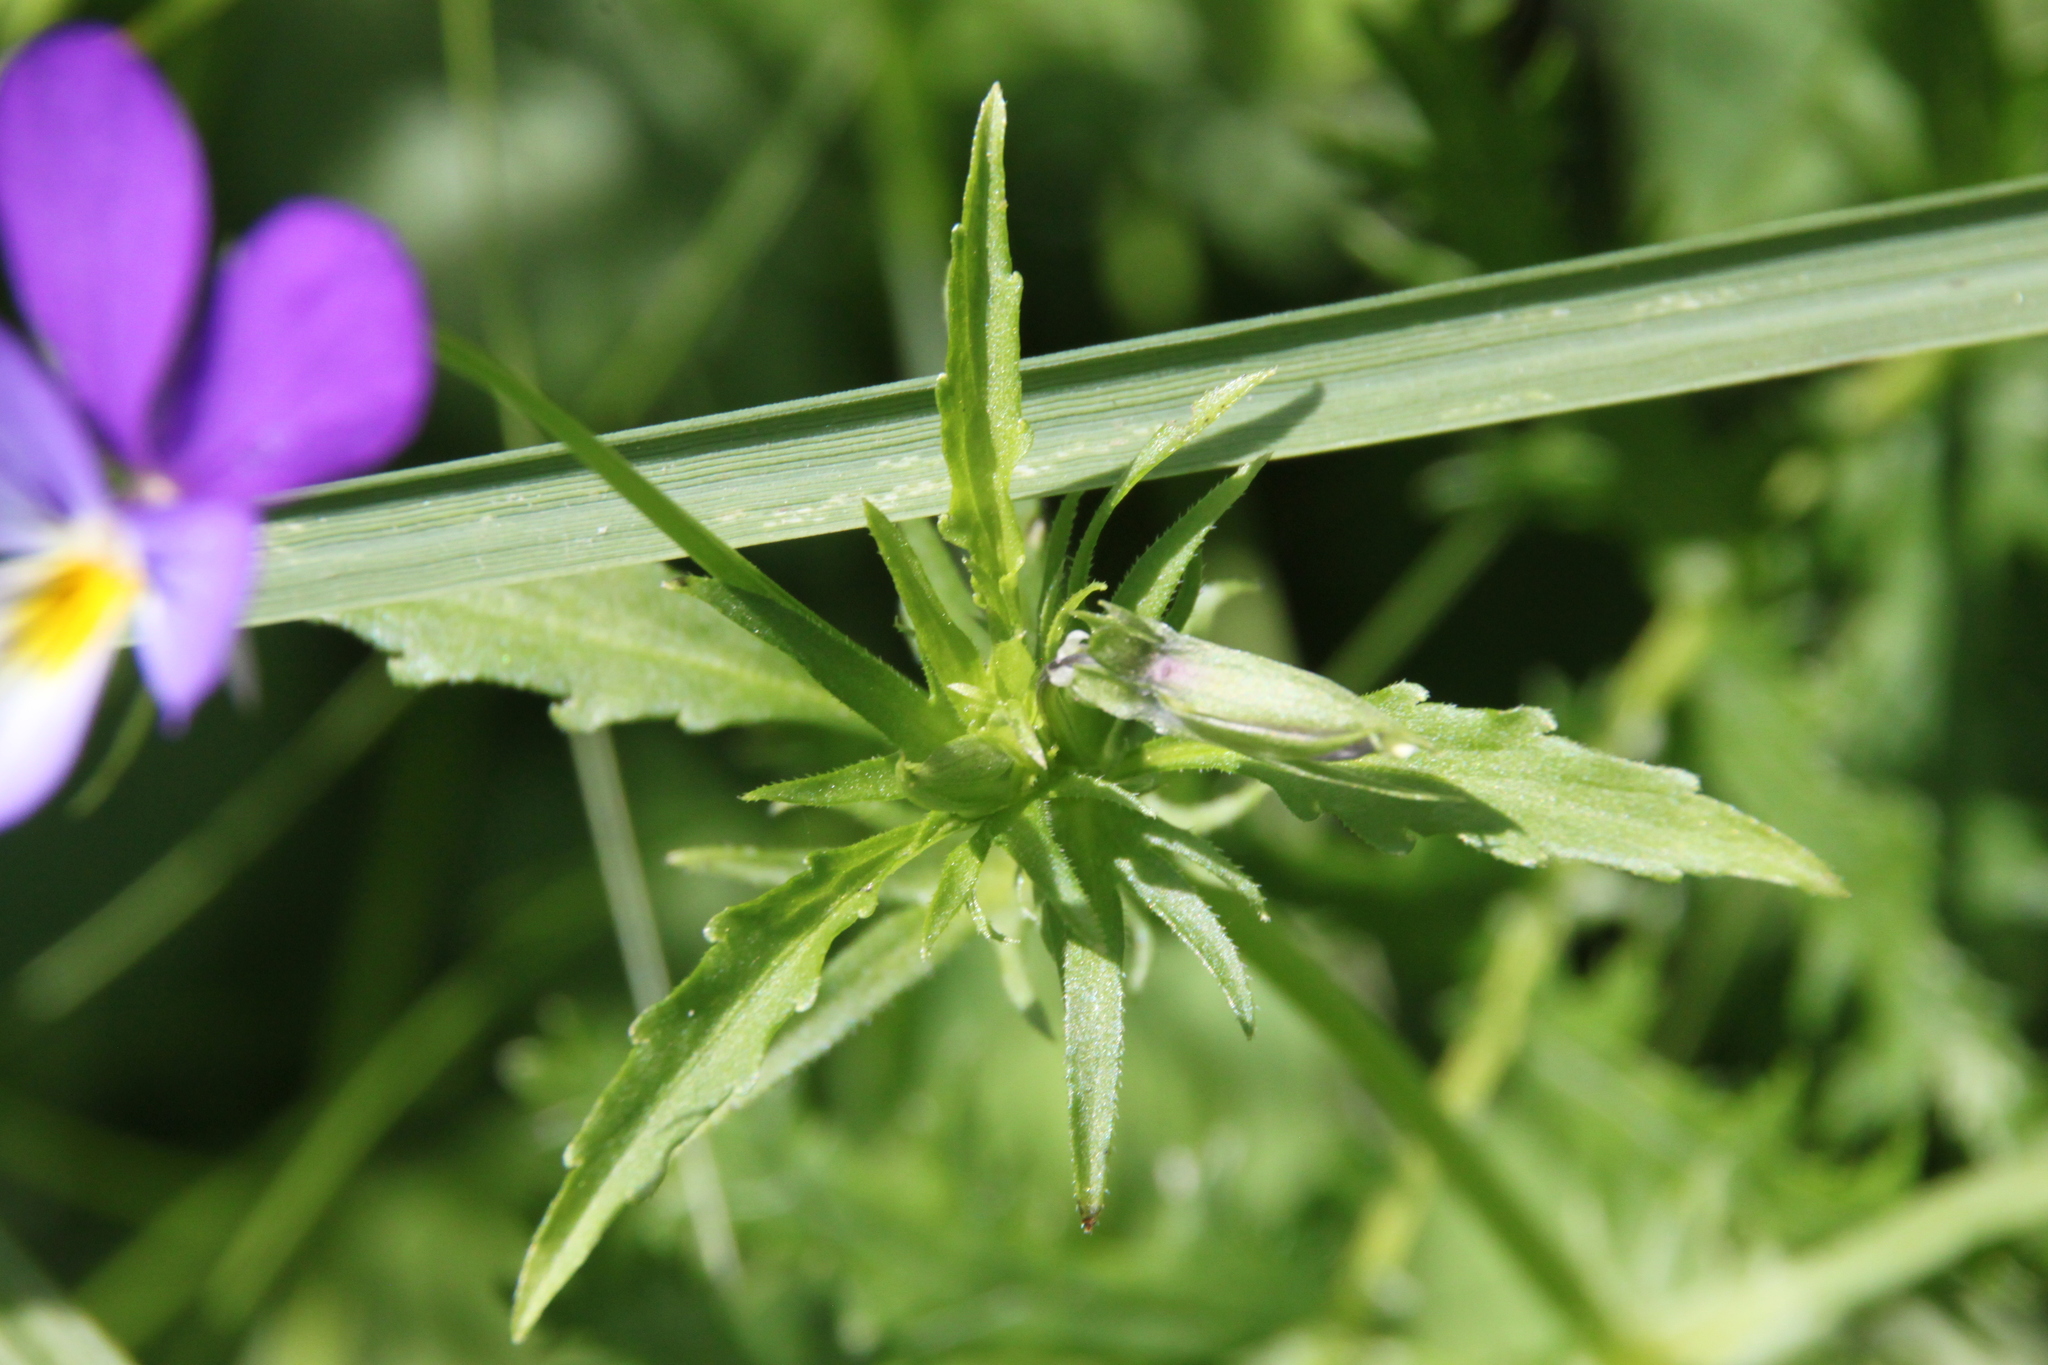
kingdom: Plantae
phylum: Tracheophyta
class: Magnoliopsida
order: Malpighiales
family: Violaceae
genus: Viola
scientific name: Viola tricolor
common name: Pansy
